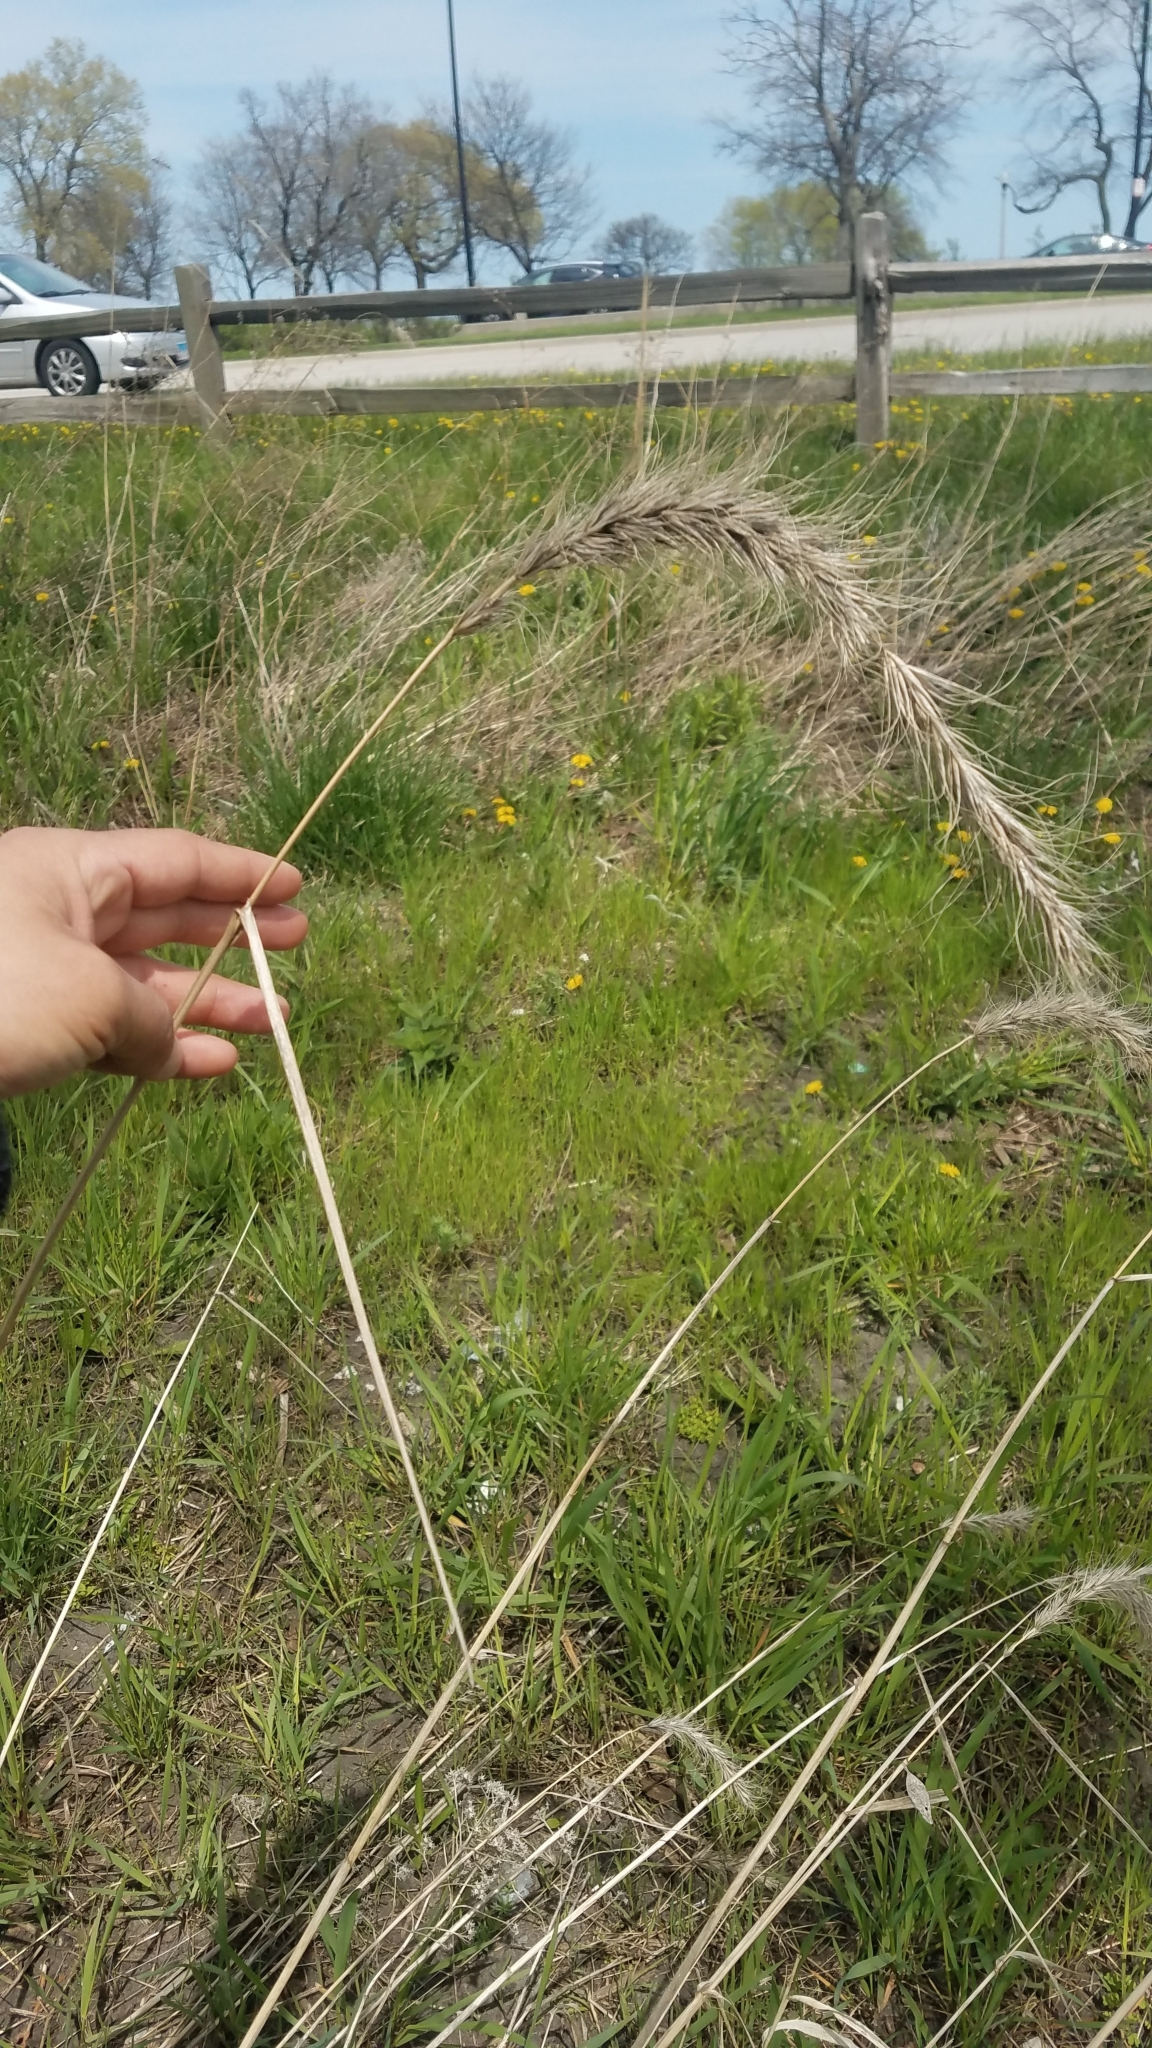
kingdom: Plantae
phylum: Tracheophyta
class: Liliopsida
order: Poales
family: Poaceae
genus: Elymus
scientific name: Elymus canadensis
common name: Canada wild rye
